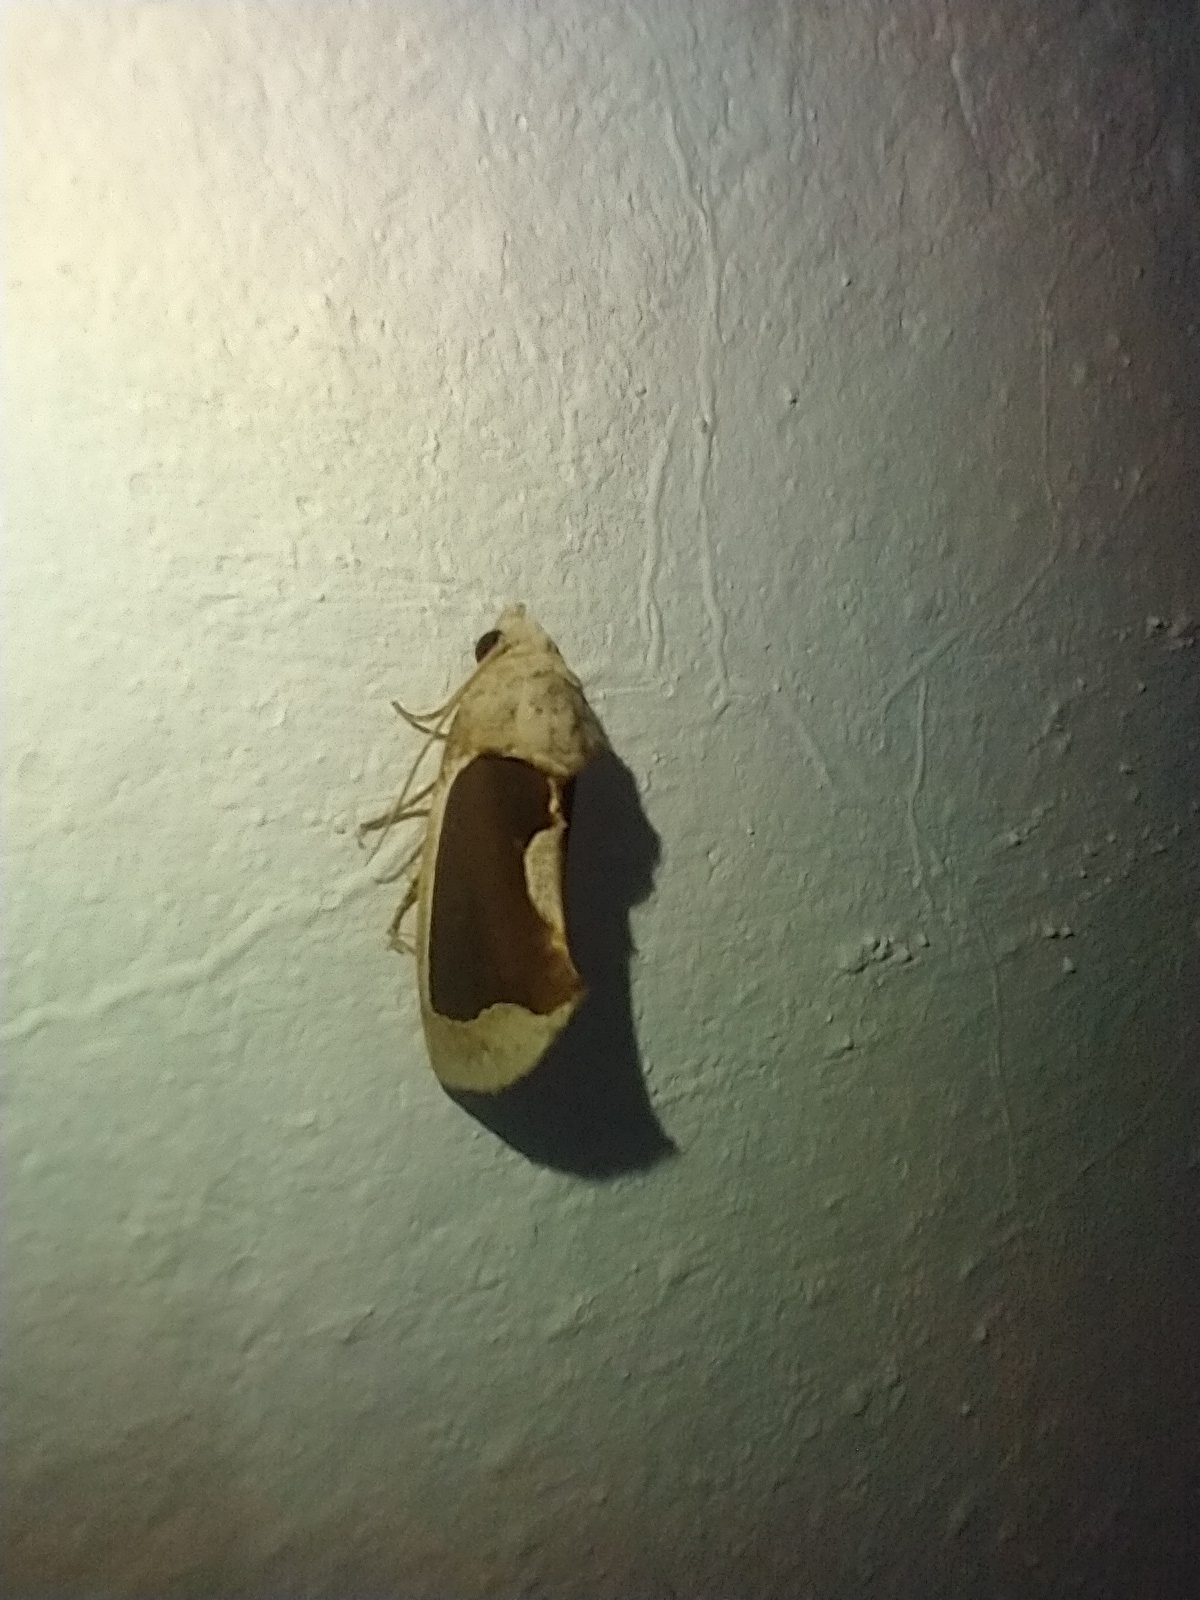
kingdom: Animalia
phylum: Arthropoda
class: Insecta
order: Lepidoptera
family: Erebidae
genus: Gonodonta
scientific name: Gonodonta sinaldus
